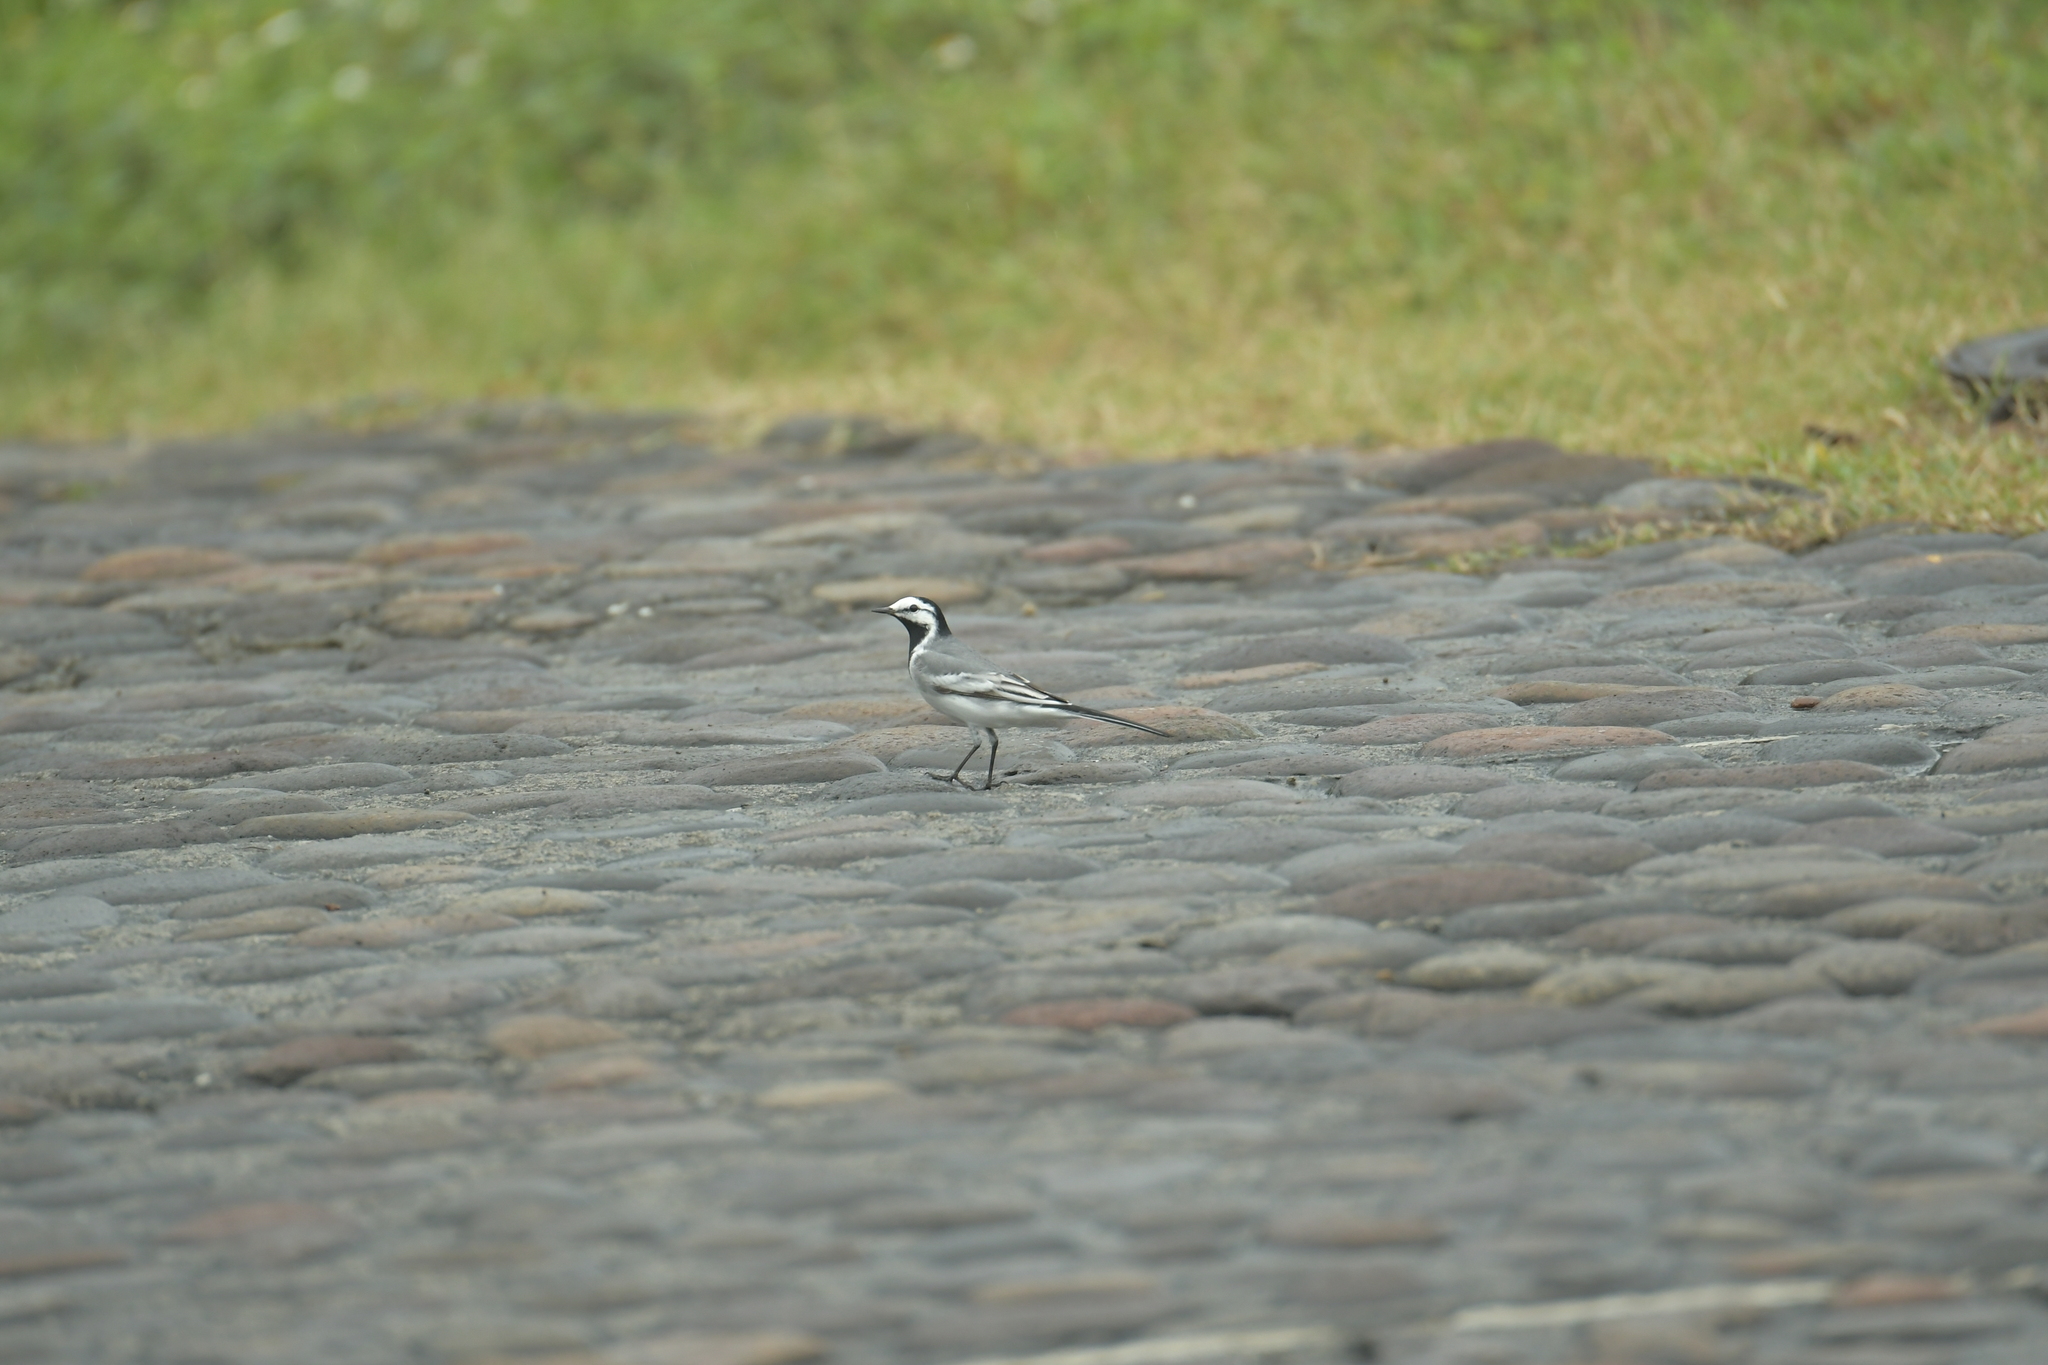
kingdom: Animalia
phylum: Chordata
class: Aves
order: Passeriformes
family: Motacillidae
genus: Motacilla
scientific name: Motacilla alba
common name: White wagtail
